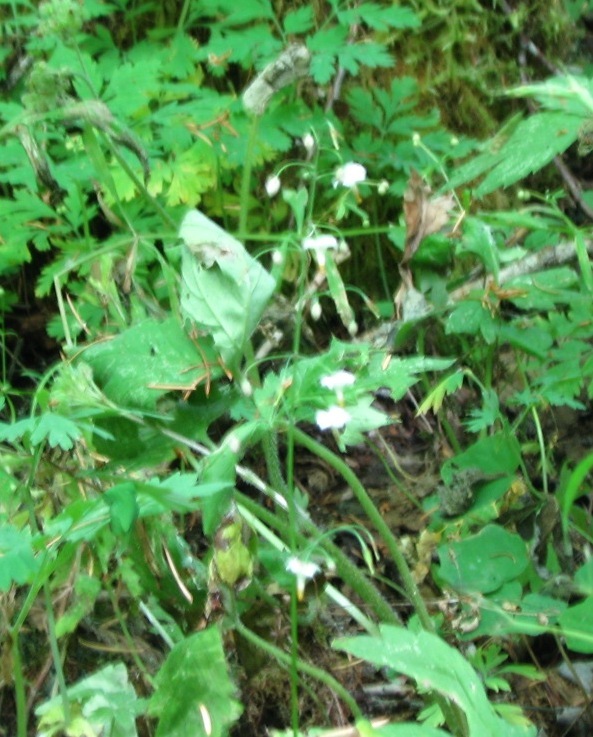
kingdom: Plantae
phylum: Tracheophyta
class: Magnoliopsida
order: Ranunculales
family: Berberidaceae
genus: Vancouveria
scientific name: Vancouveria hexandra
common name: Northern inside-out-flower
